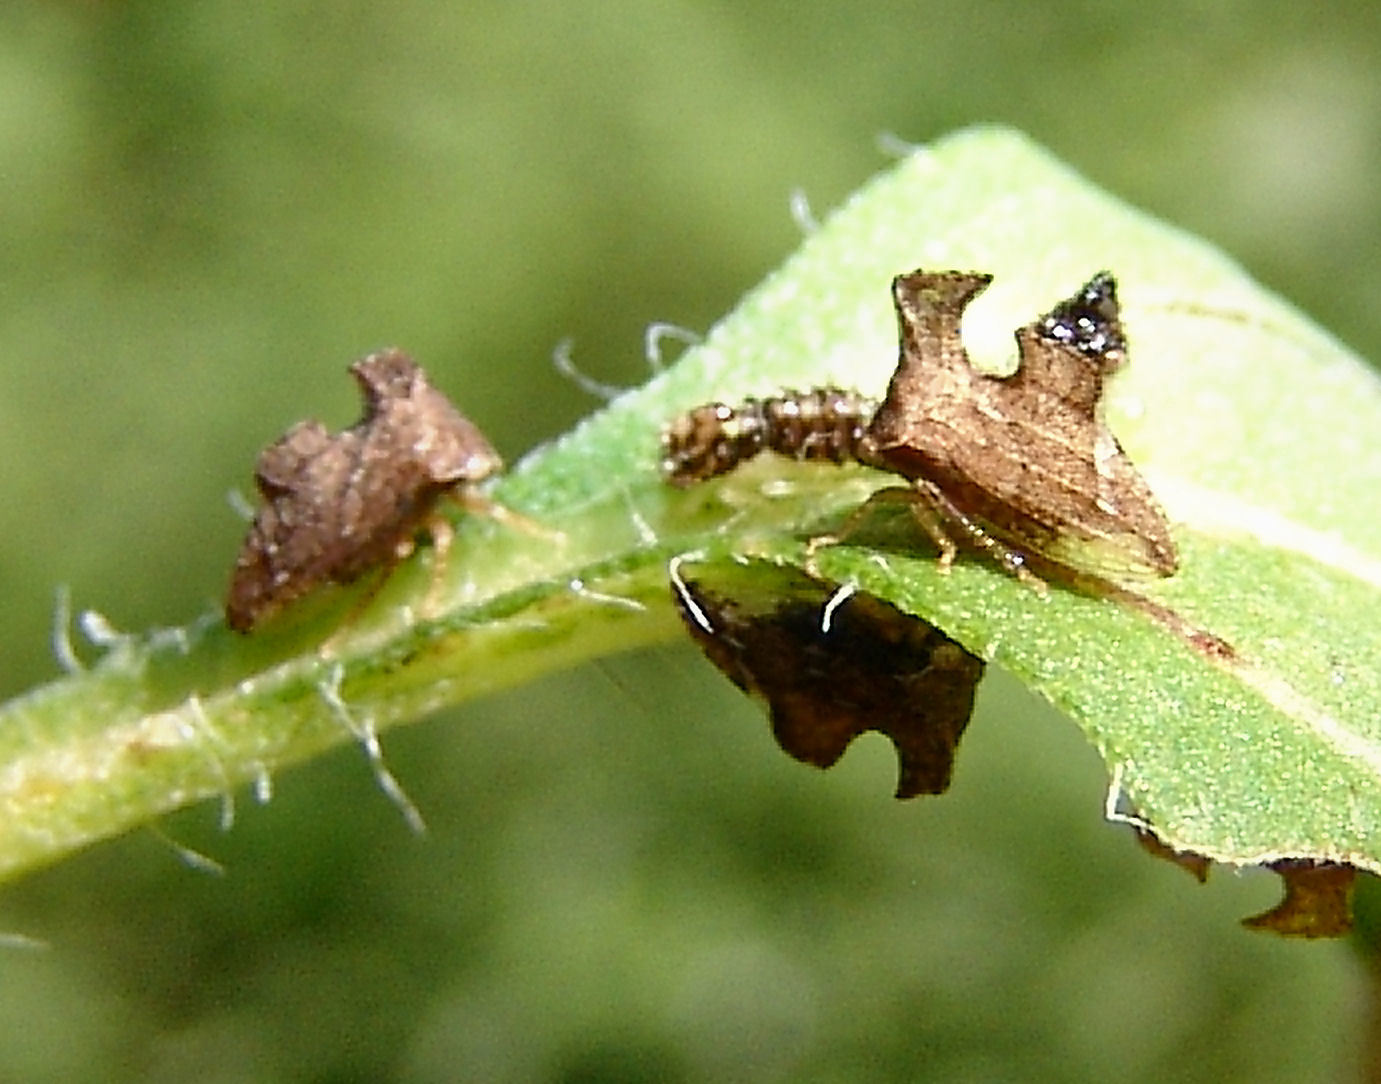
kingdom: Animalia
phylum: Arthropoda
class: Insecta
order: Hemiptera
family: Membracidae
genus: Entylia
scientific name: Entylia carinata
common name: Keeled treehopper
